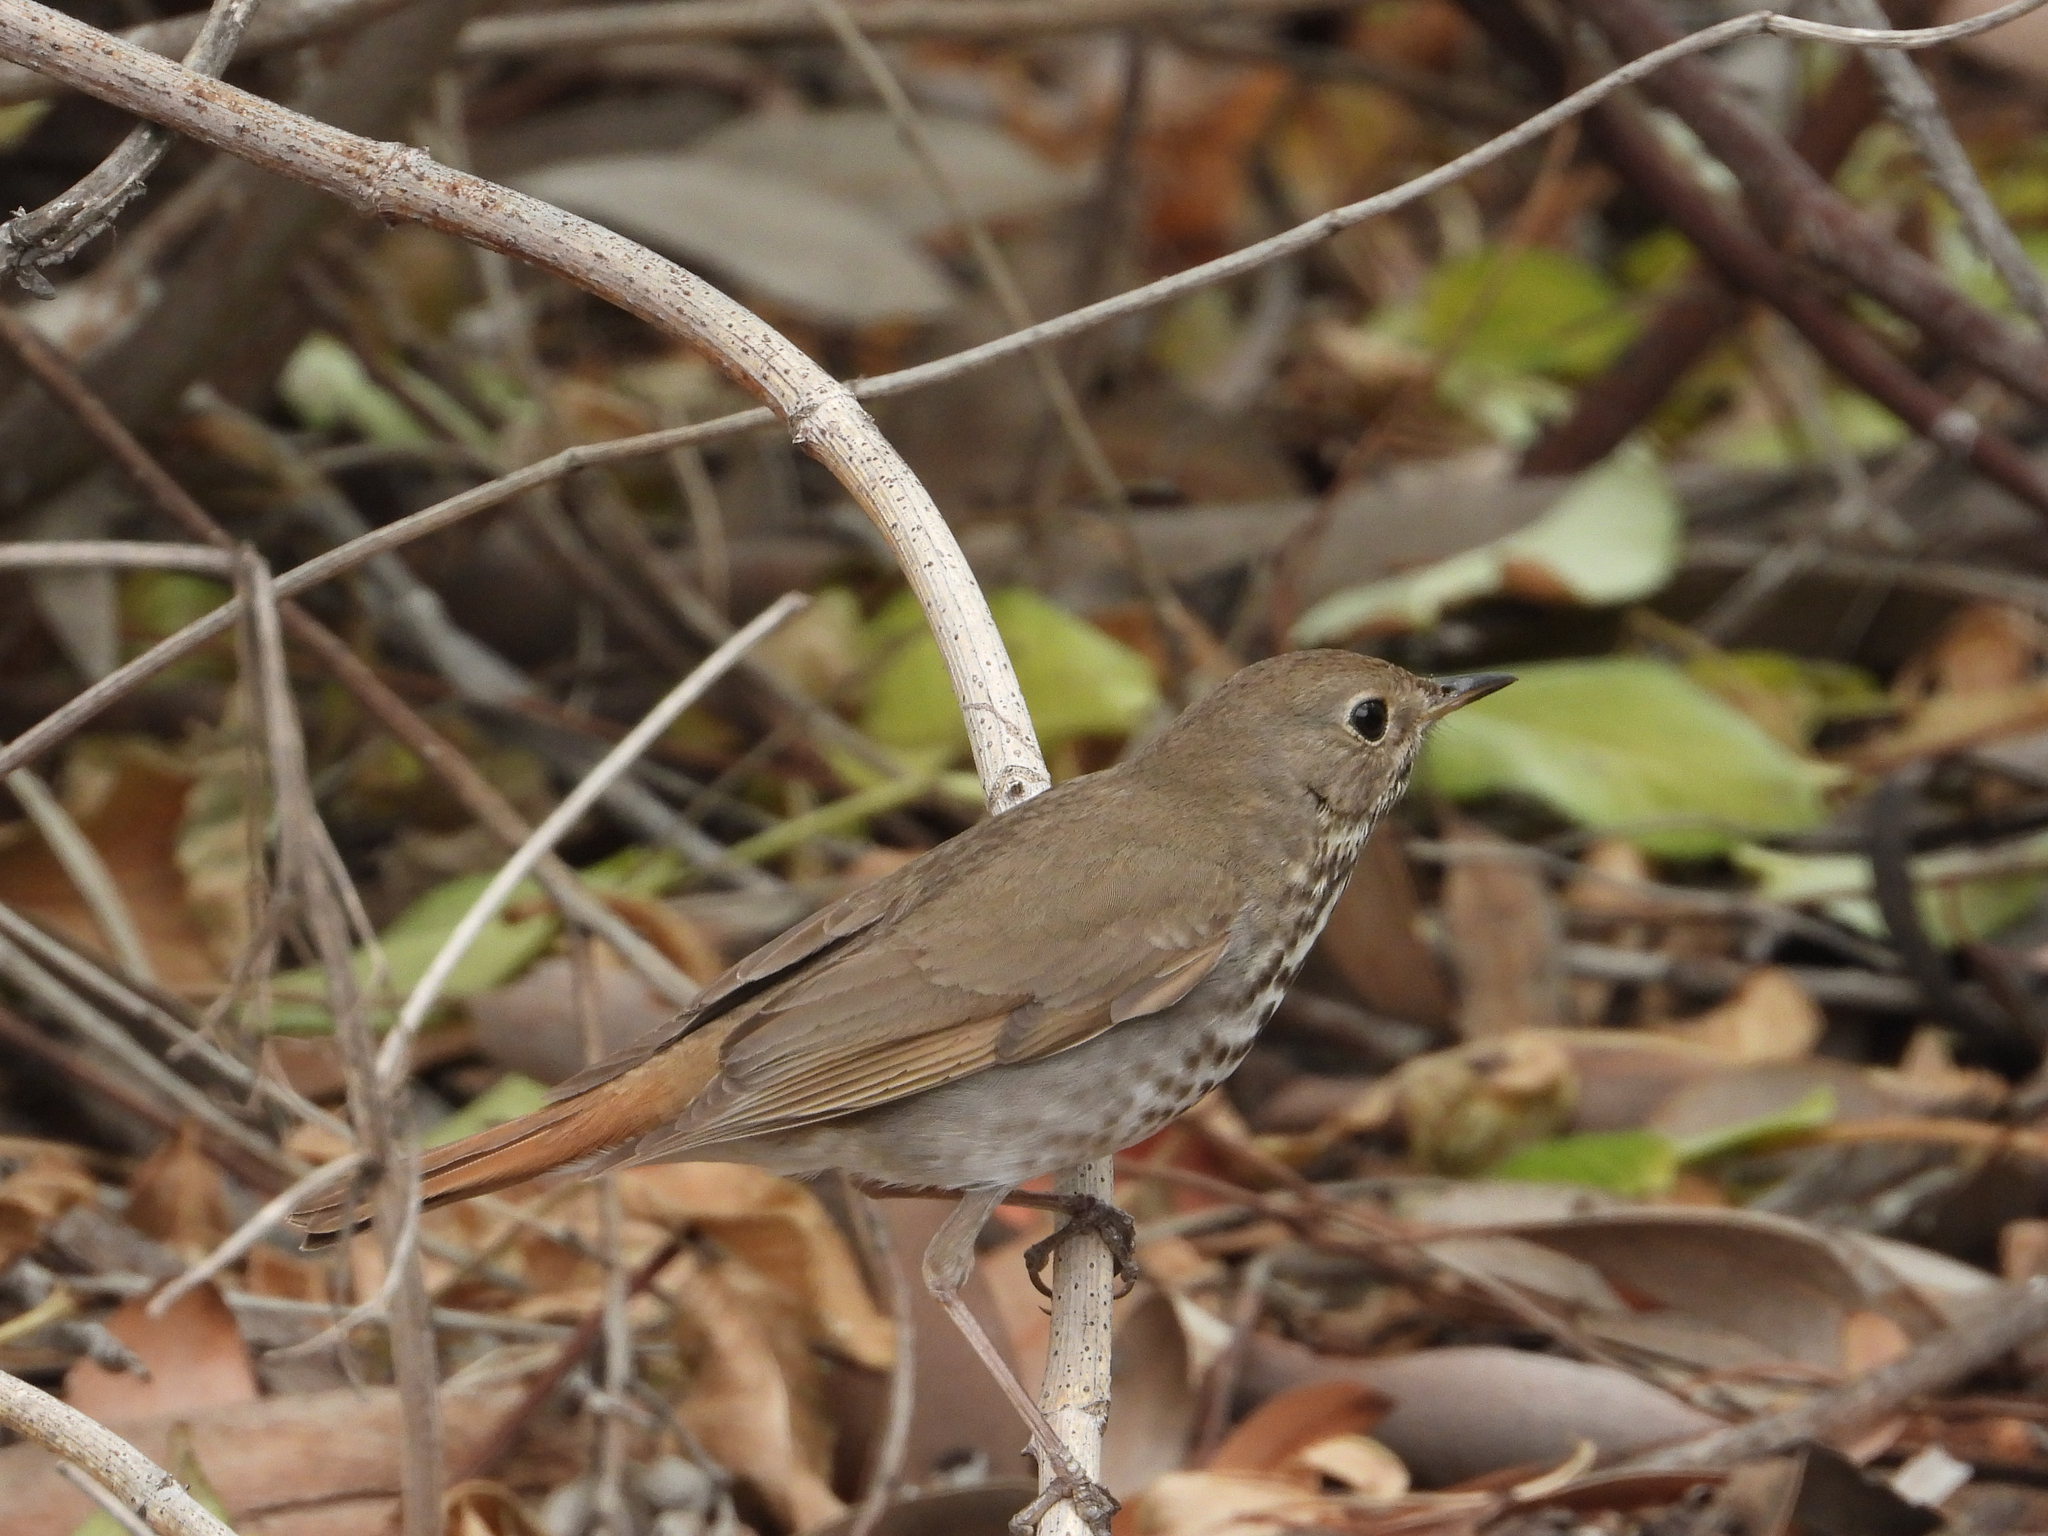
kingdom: Animalia
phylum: Chordata
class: Aves
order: Passeriformes
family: Turdidae
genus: Catharus
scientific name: Catharus guttatus
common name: Hermit thrush
